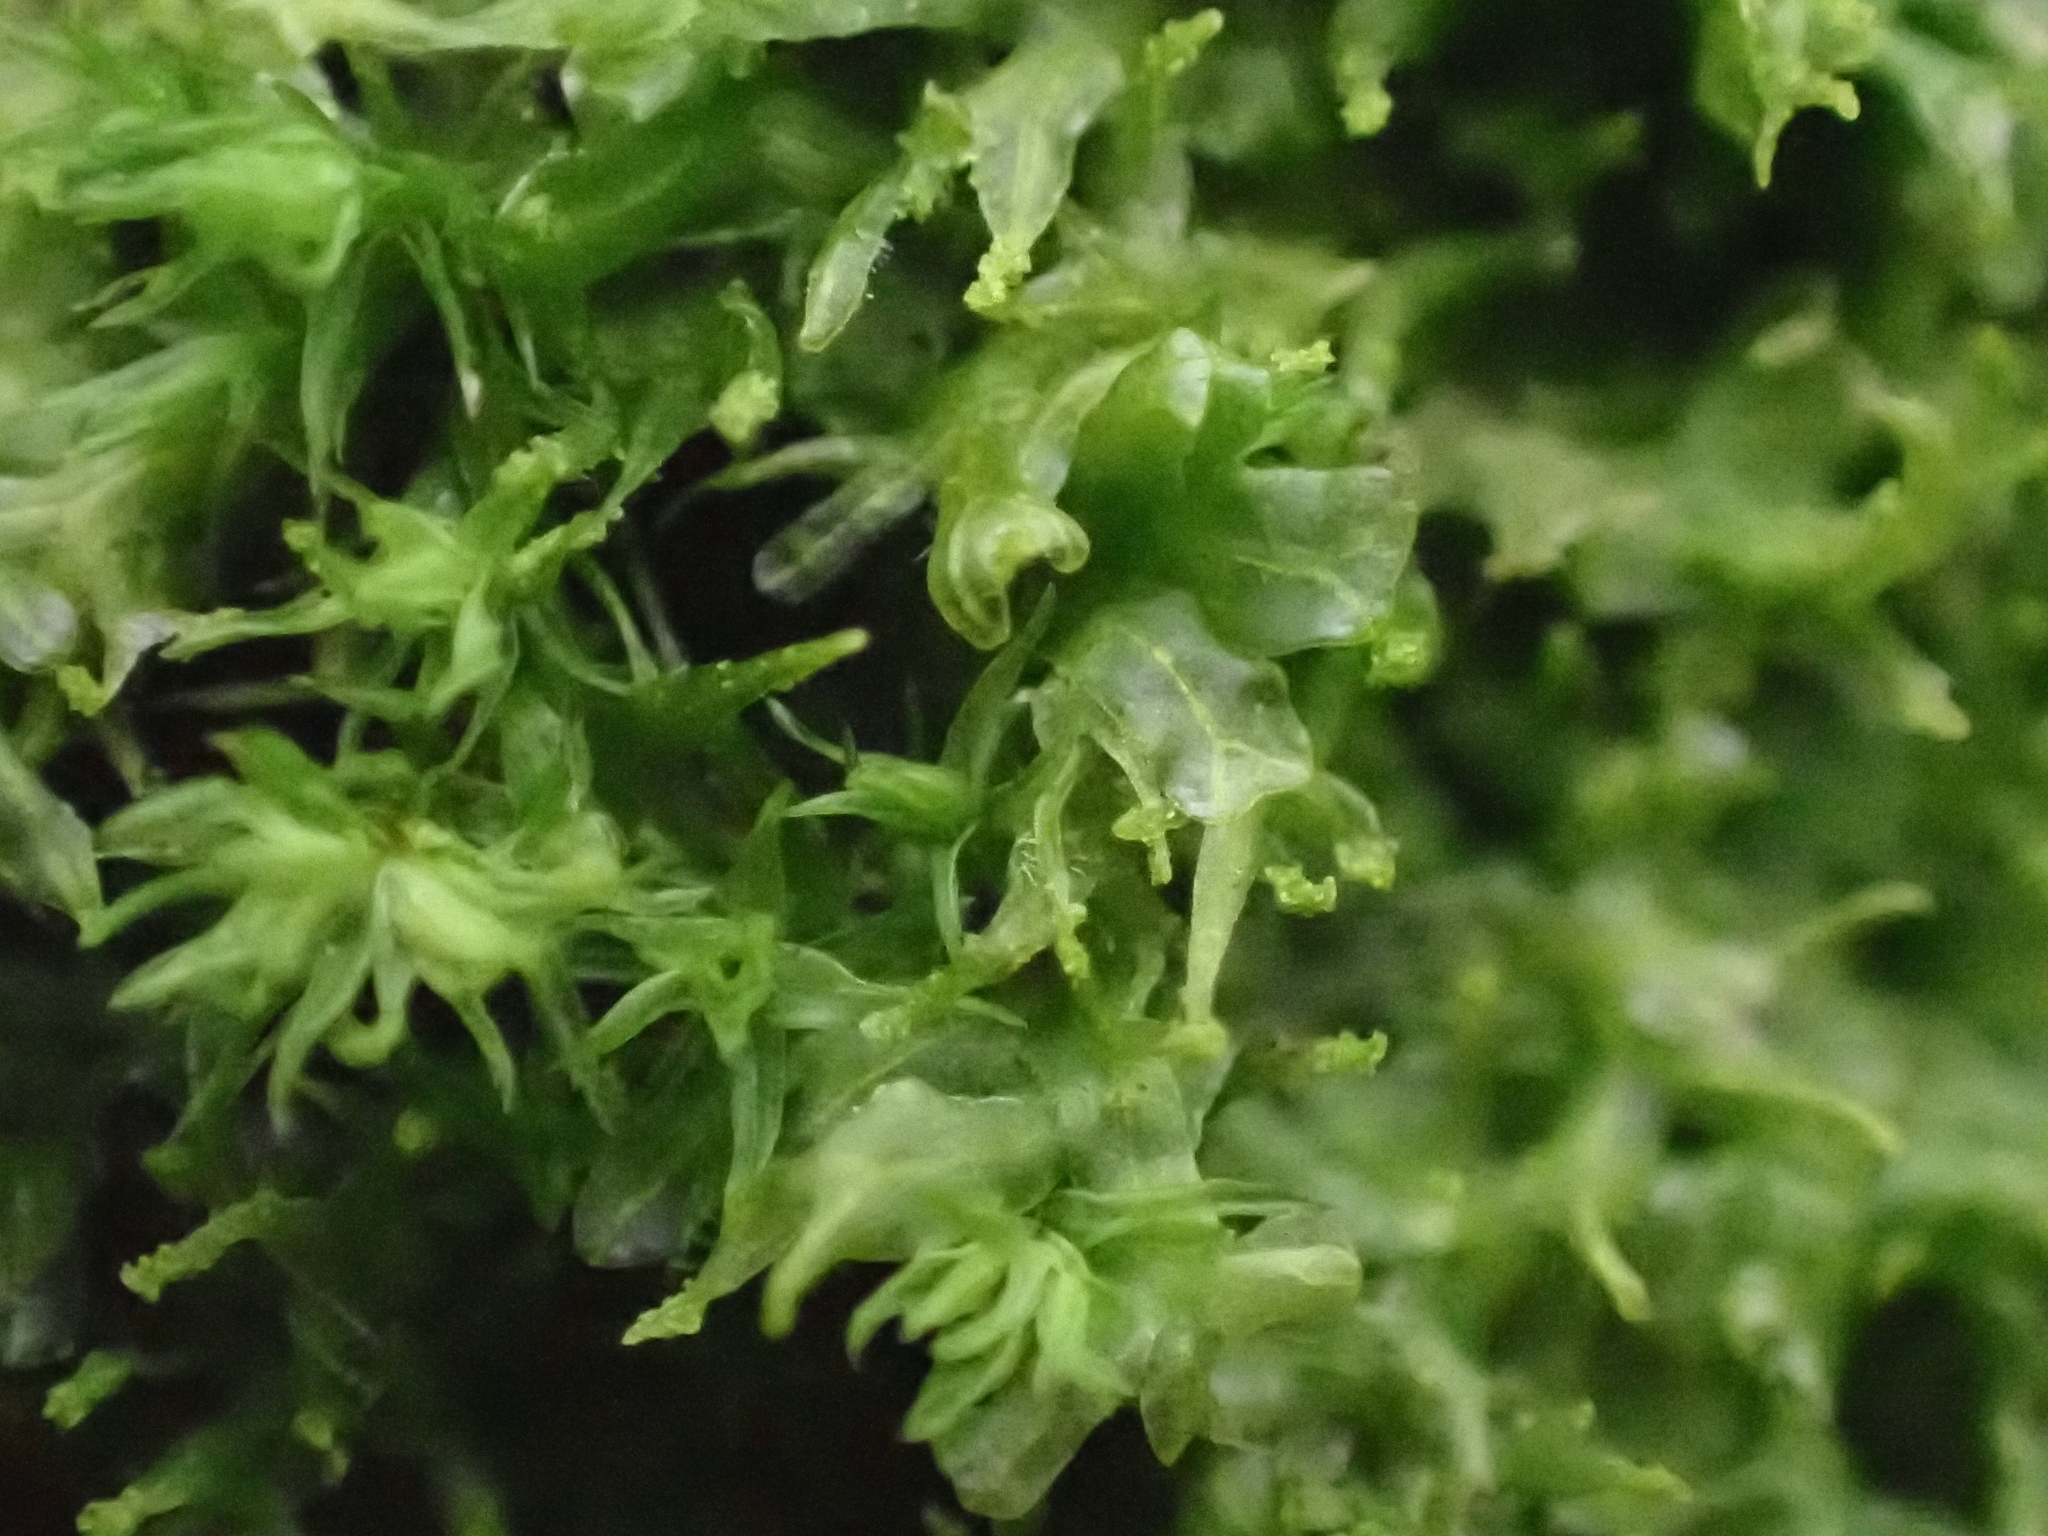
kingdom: Plantae
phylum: Marchantiophyta
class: Jungermanniopsida
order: Metzgeriales
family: Metzgeriaceae
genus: Metzgeria
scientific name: Metzgeria violacea
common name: Blueish veilwort
